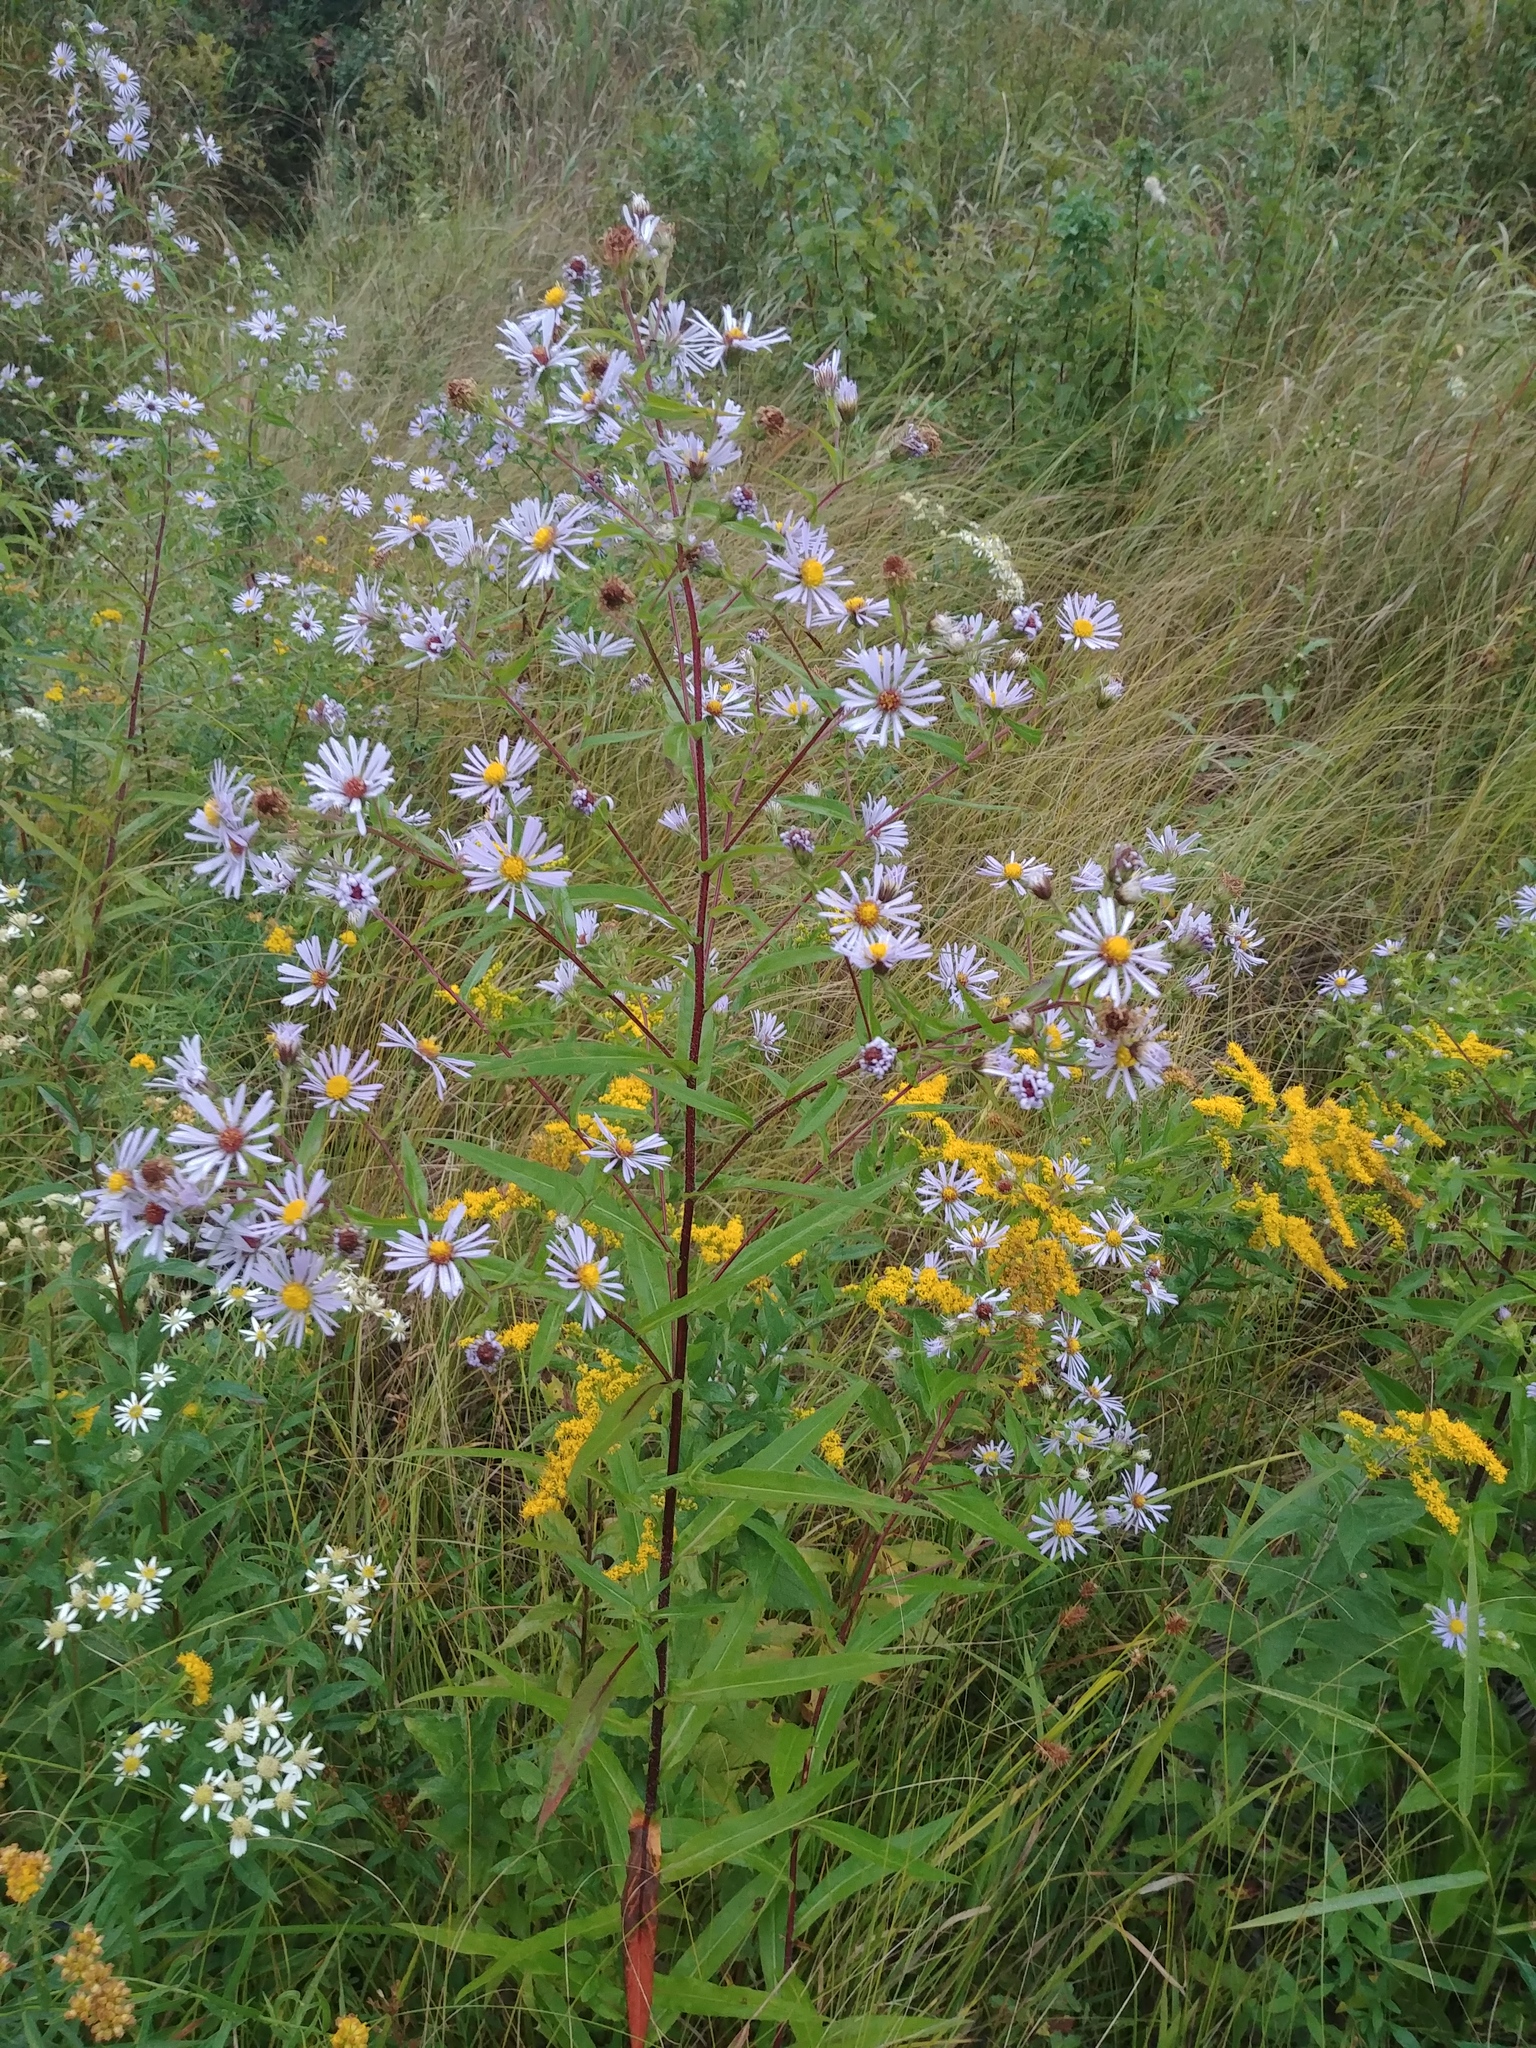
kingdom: Plantae
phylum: Tracheophyta
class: Magnoliopsida
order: Asterales
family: Asteraceae
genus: Symphyotrichum
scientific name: Symphyotrichum puniceum
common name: Bog aster
